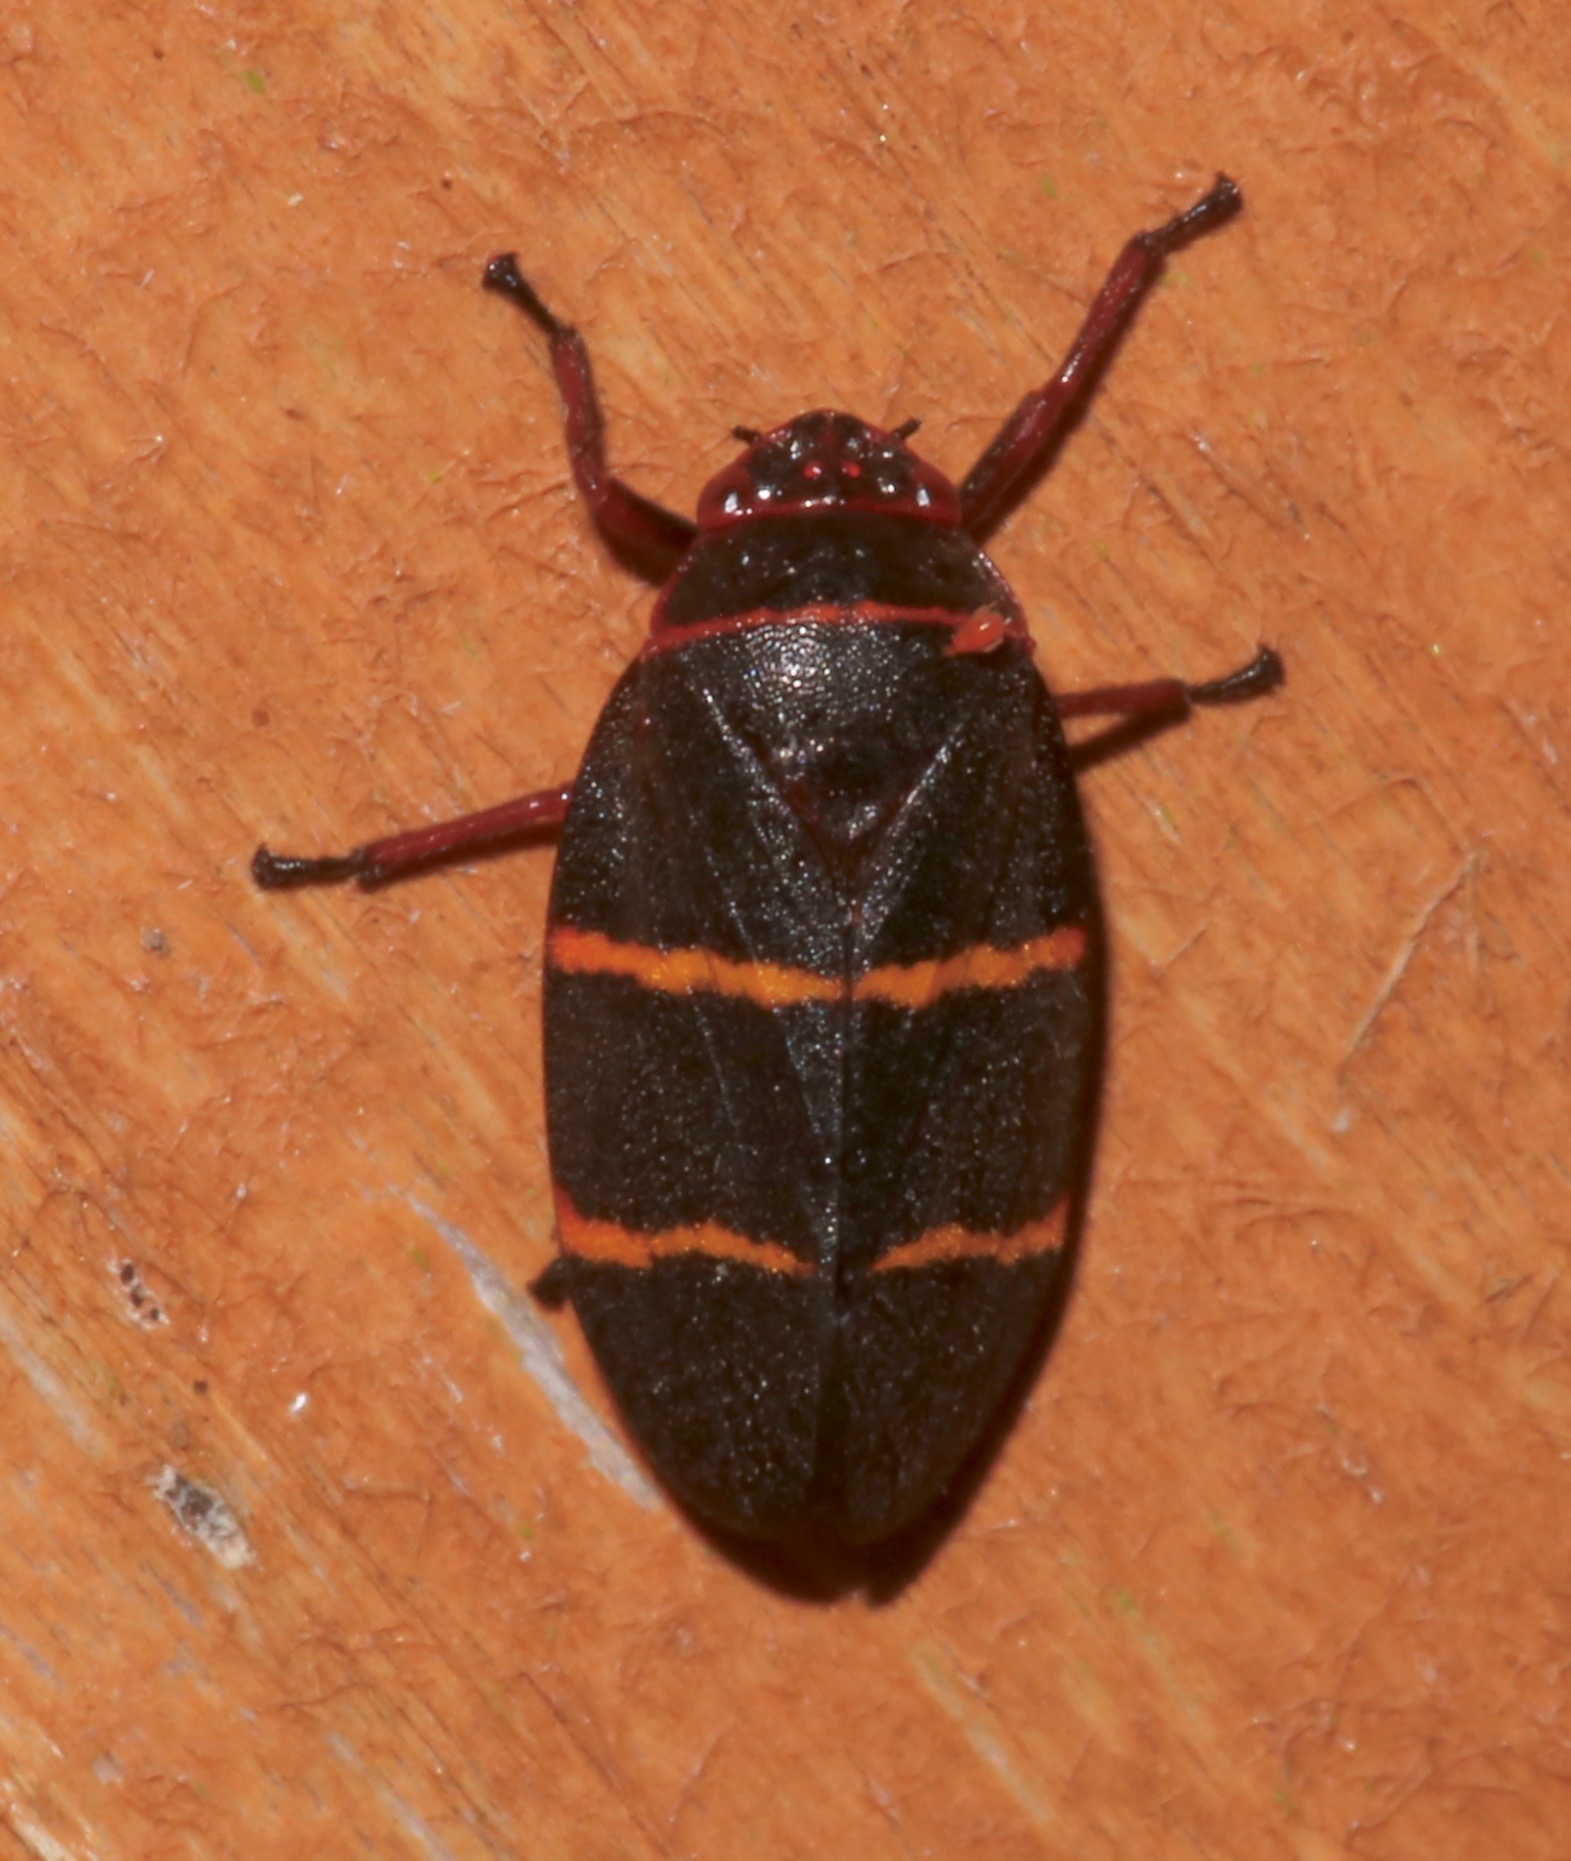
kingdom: Animalia
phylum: Arthropoda
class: Insecta
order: Hemiptera
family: Cercopidae
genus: Prosapia
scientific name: Prosapia bicincta
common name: Twolined spittlebug
